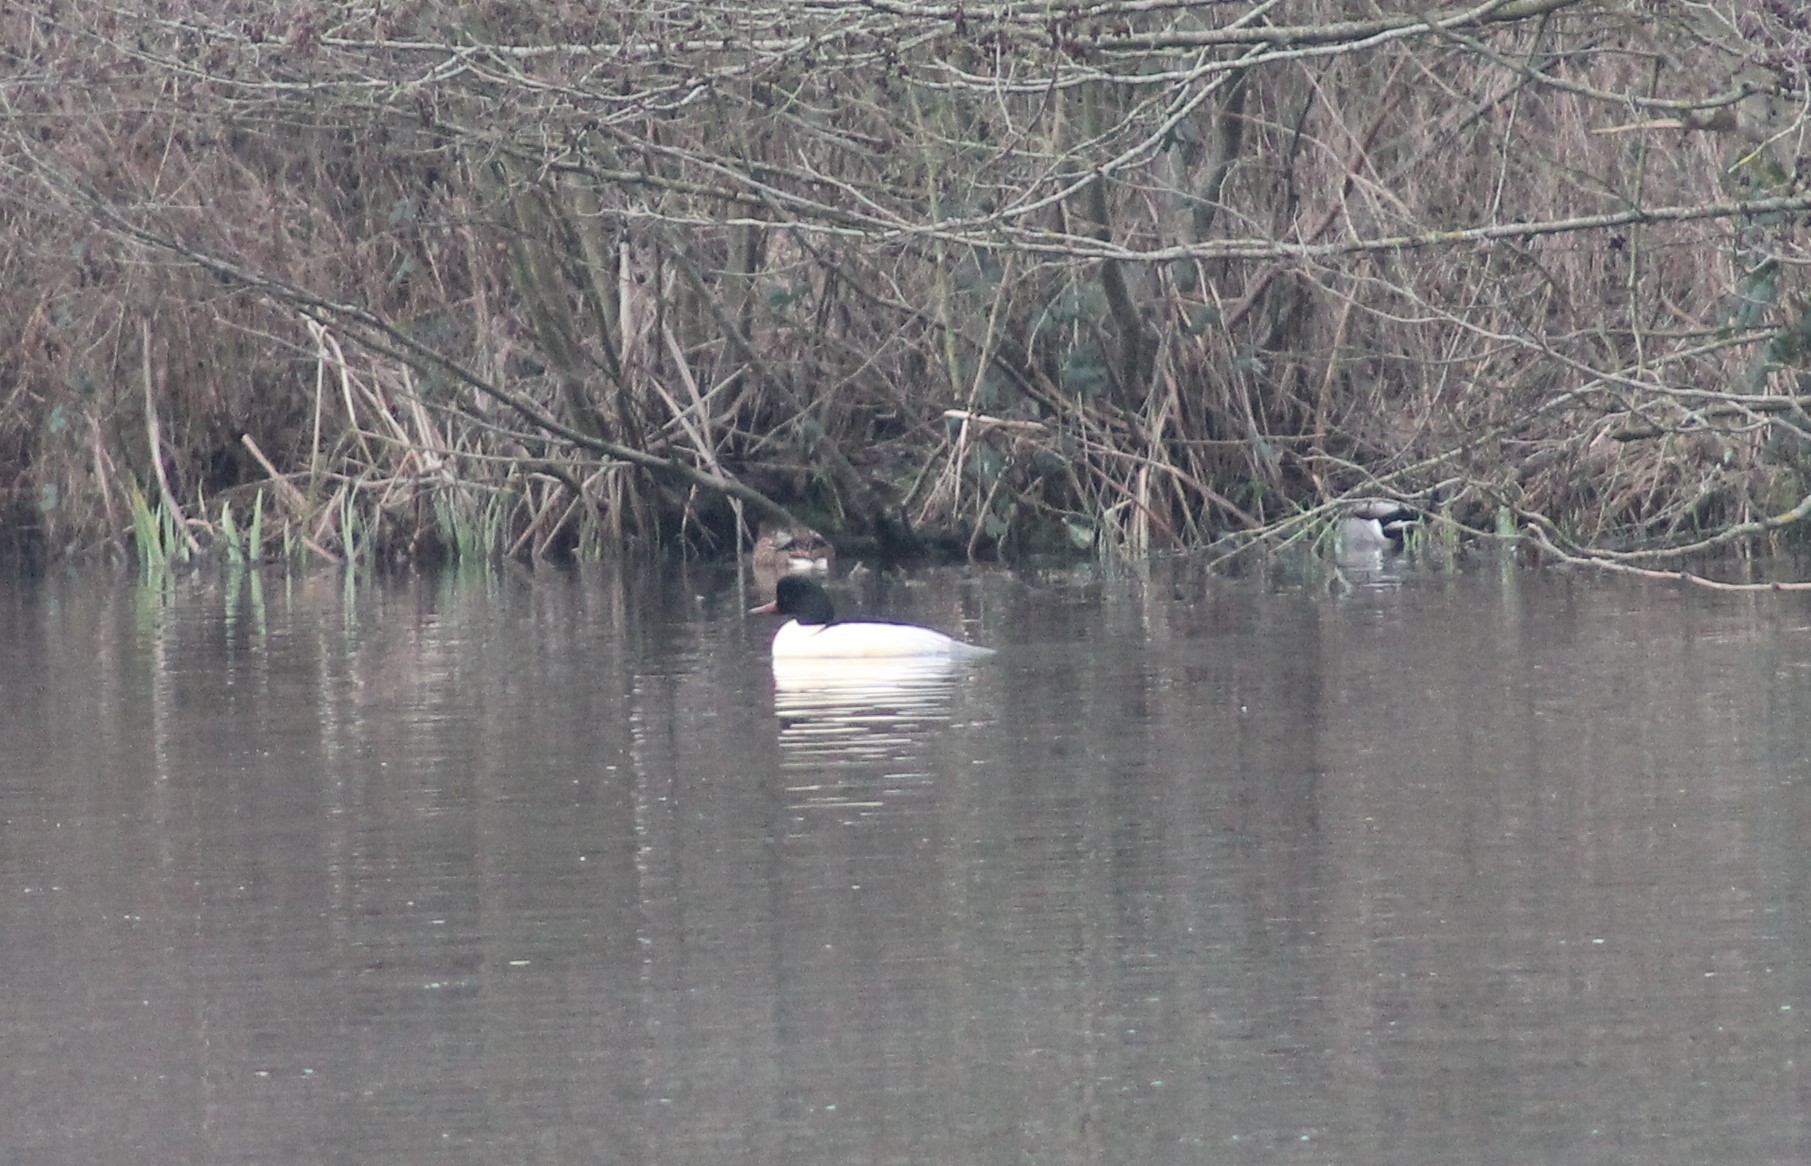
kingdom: Animalia
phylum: Chordata
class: Aves
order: Anseriformes
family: Anatidae
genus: Mergus
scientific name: Mergus merganser
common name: Common merganser
